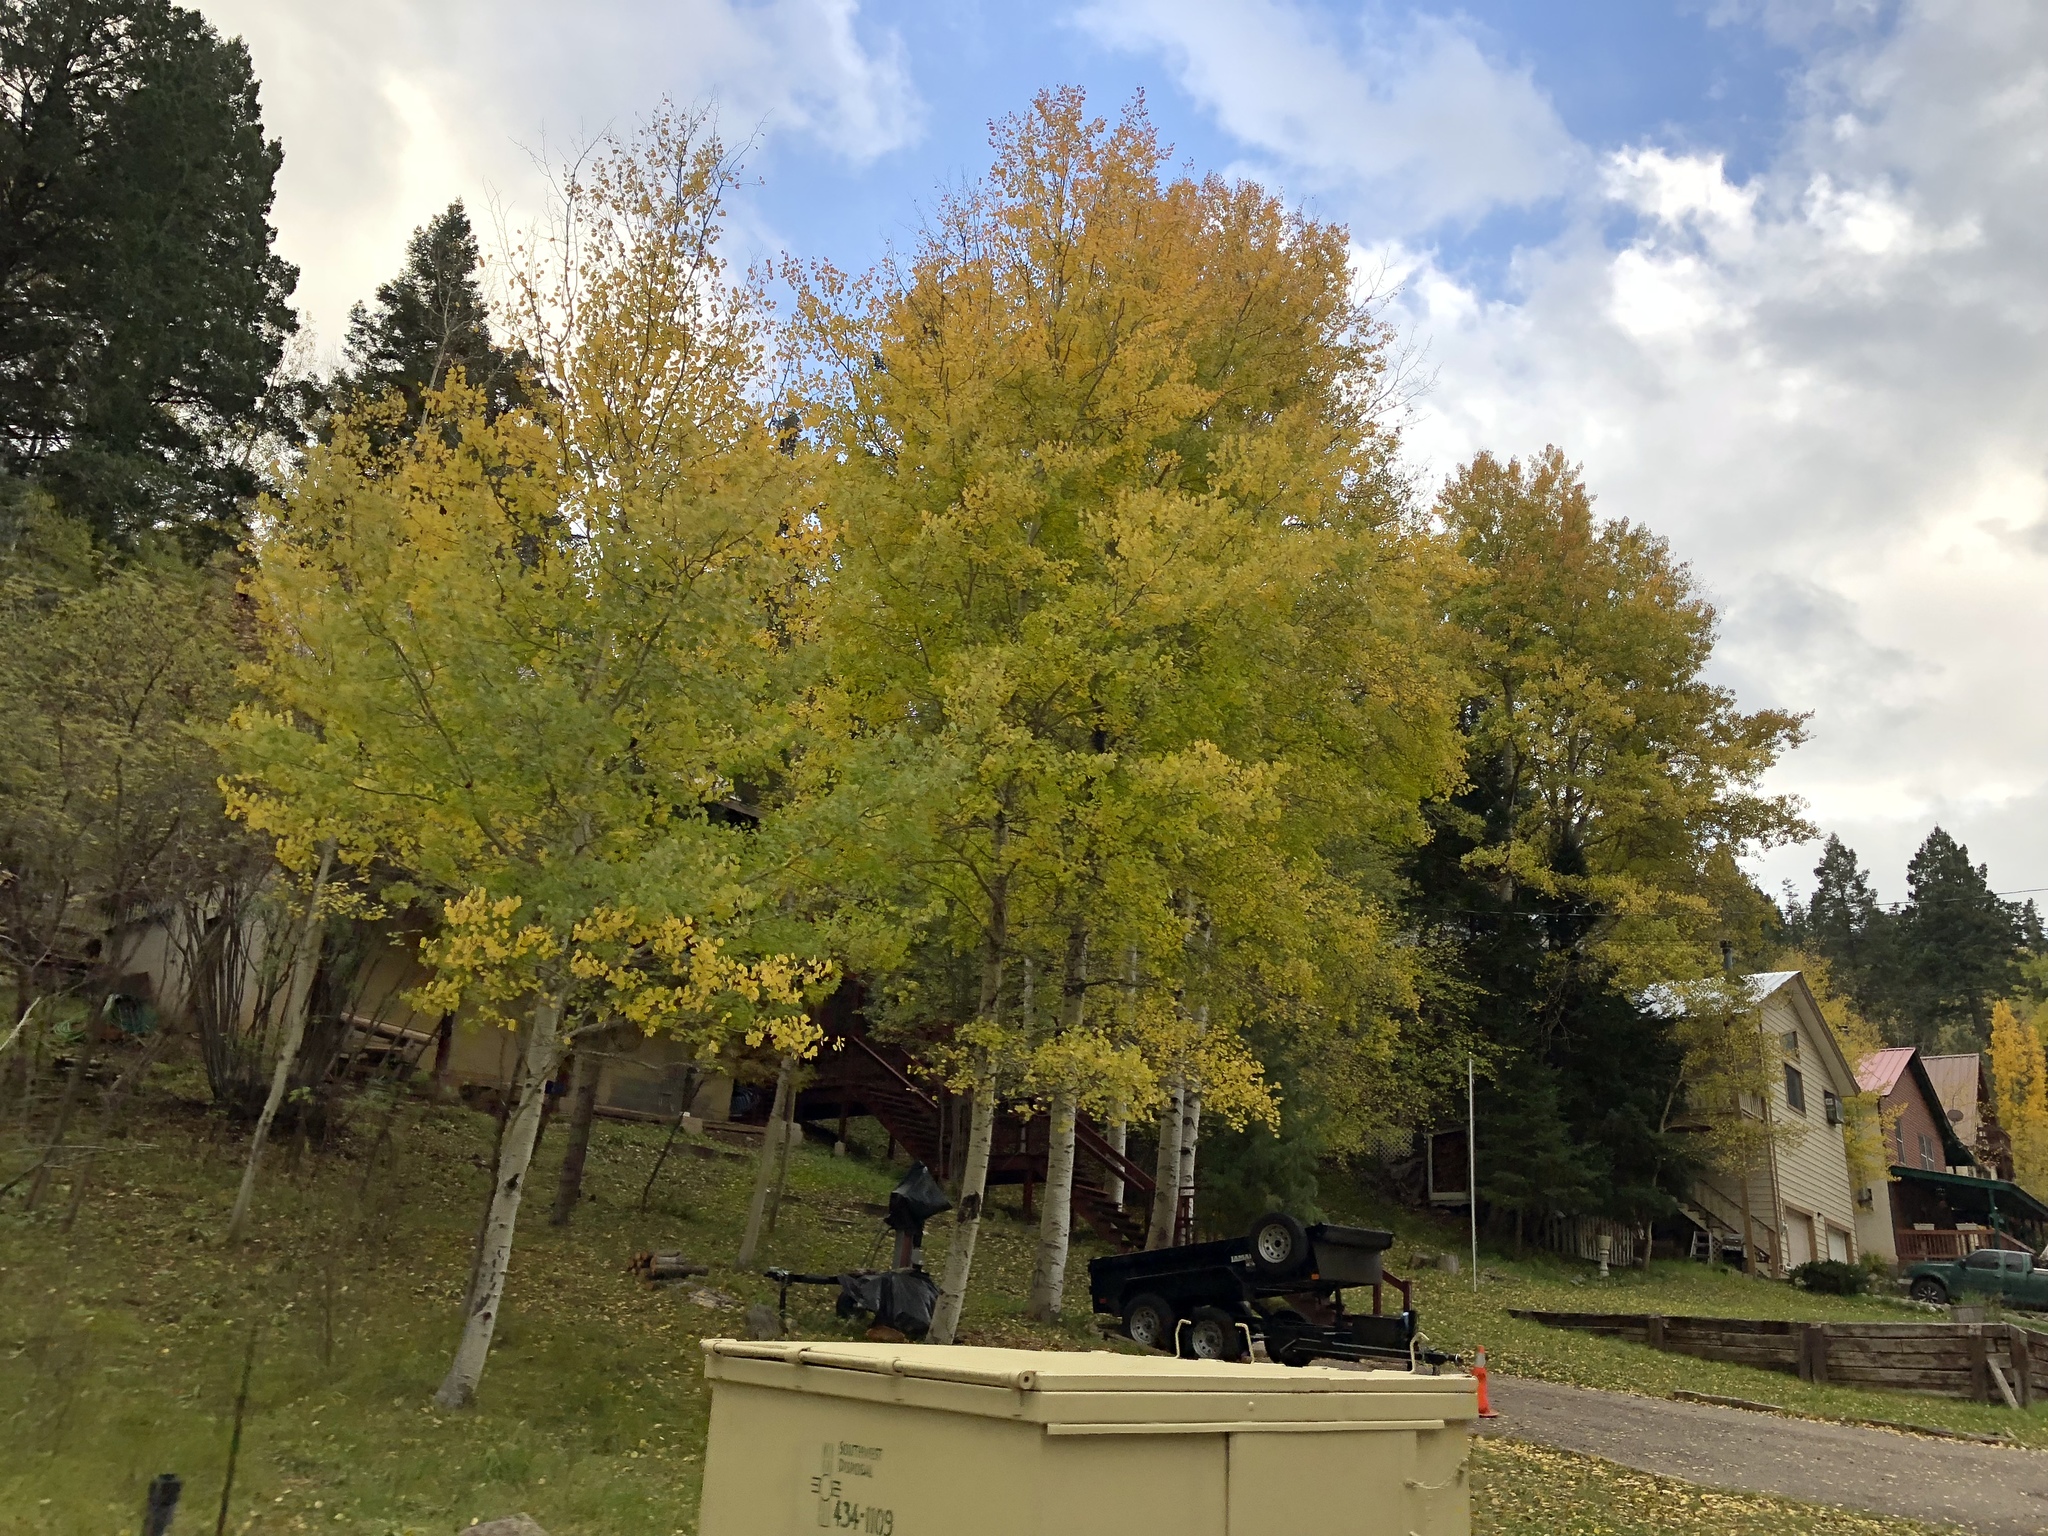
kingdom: Plantae
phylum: Tracheophyta
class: Magnoliopsida
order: Malpighiales
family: Salicaceae
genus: Populus
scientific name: Populus tremuloides
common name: Quaking aspen
